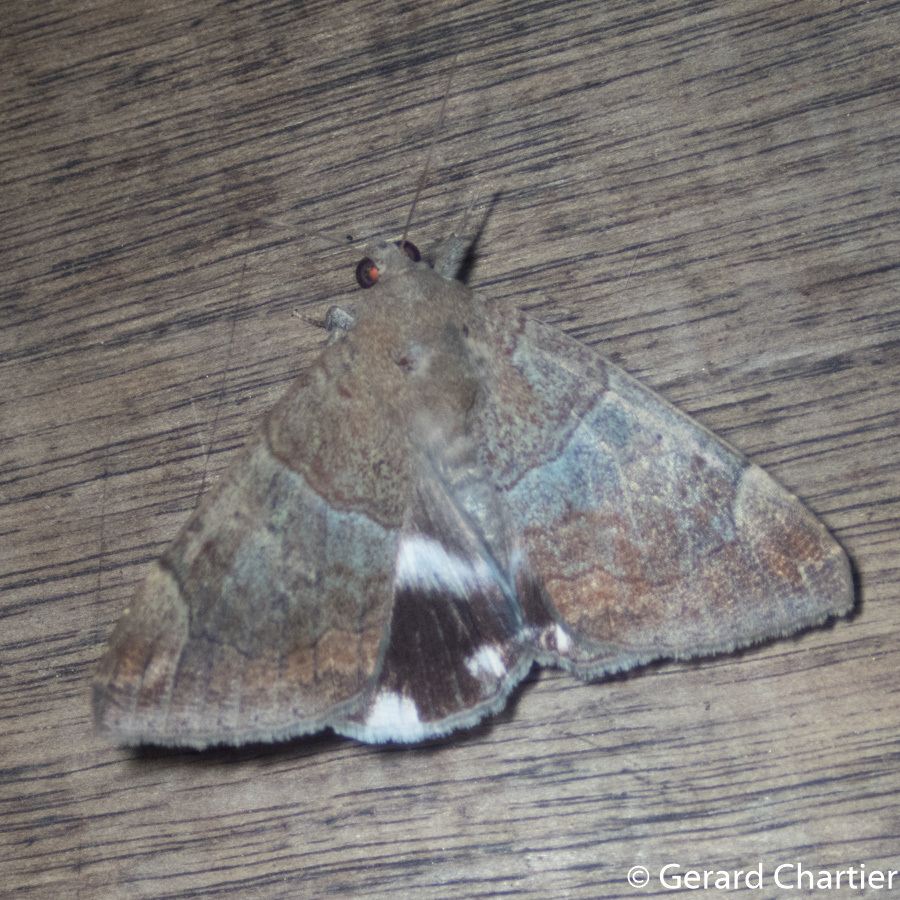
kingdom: Animalia
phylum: Arthropoda
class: Insecta
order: Lepidoptera
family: Erebidae
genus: Achaea
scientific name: Achaea janata
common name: Croton caterpillar
